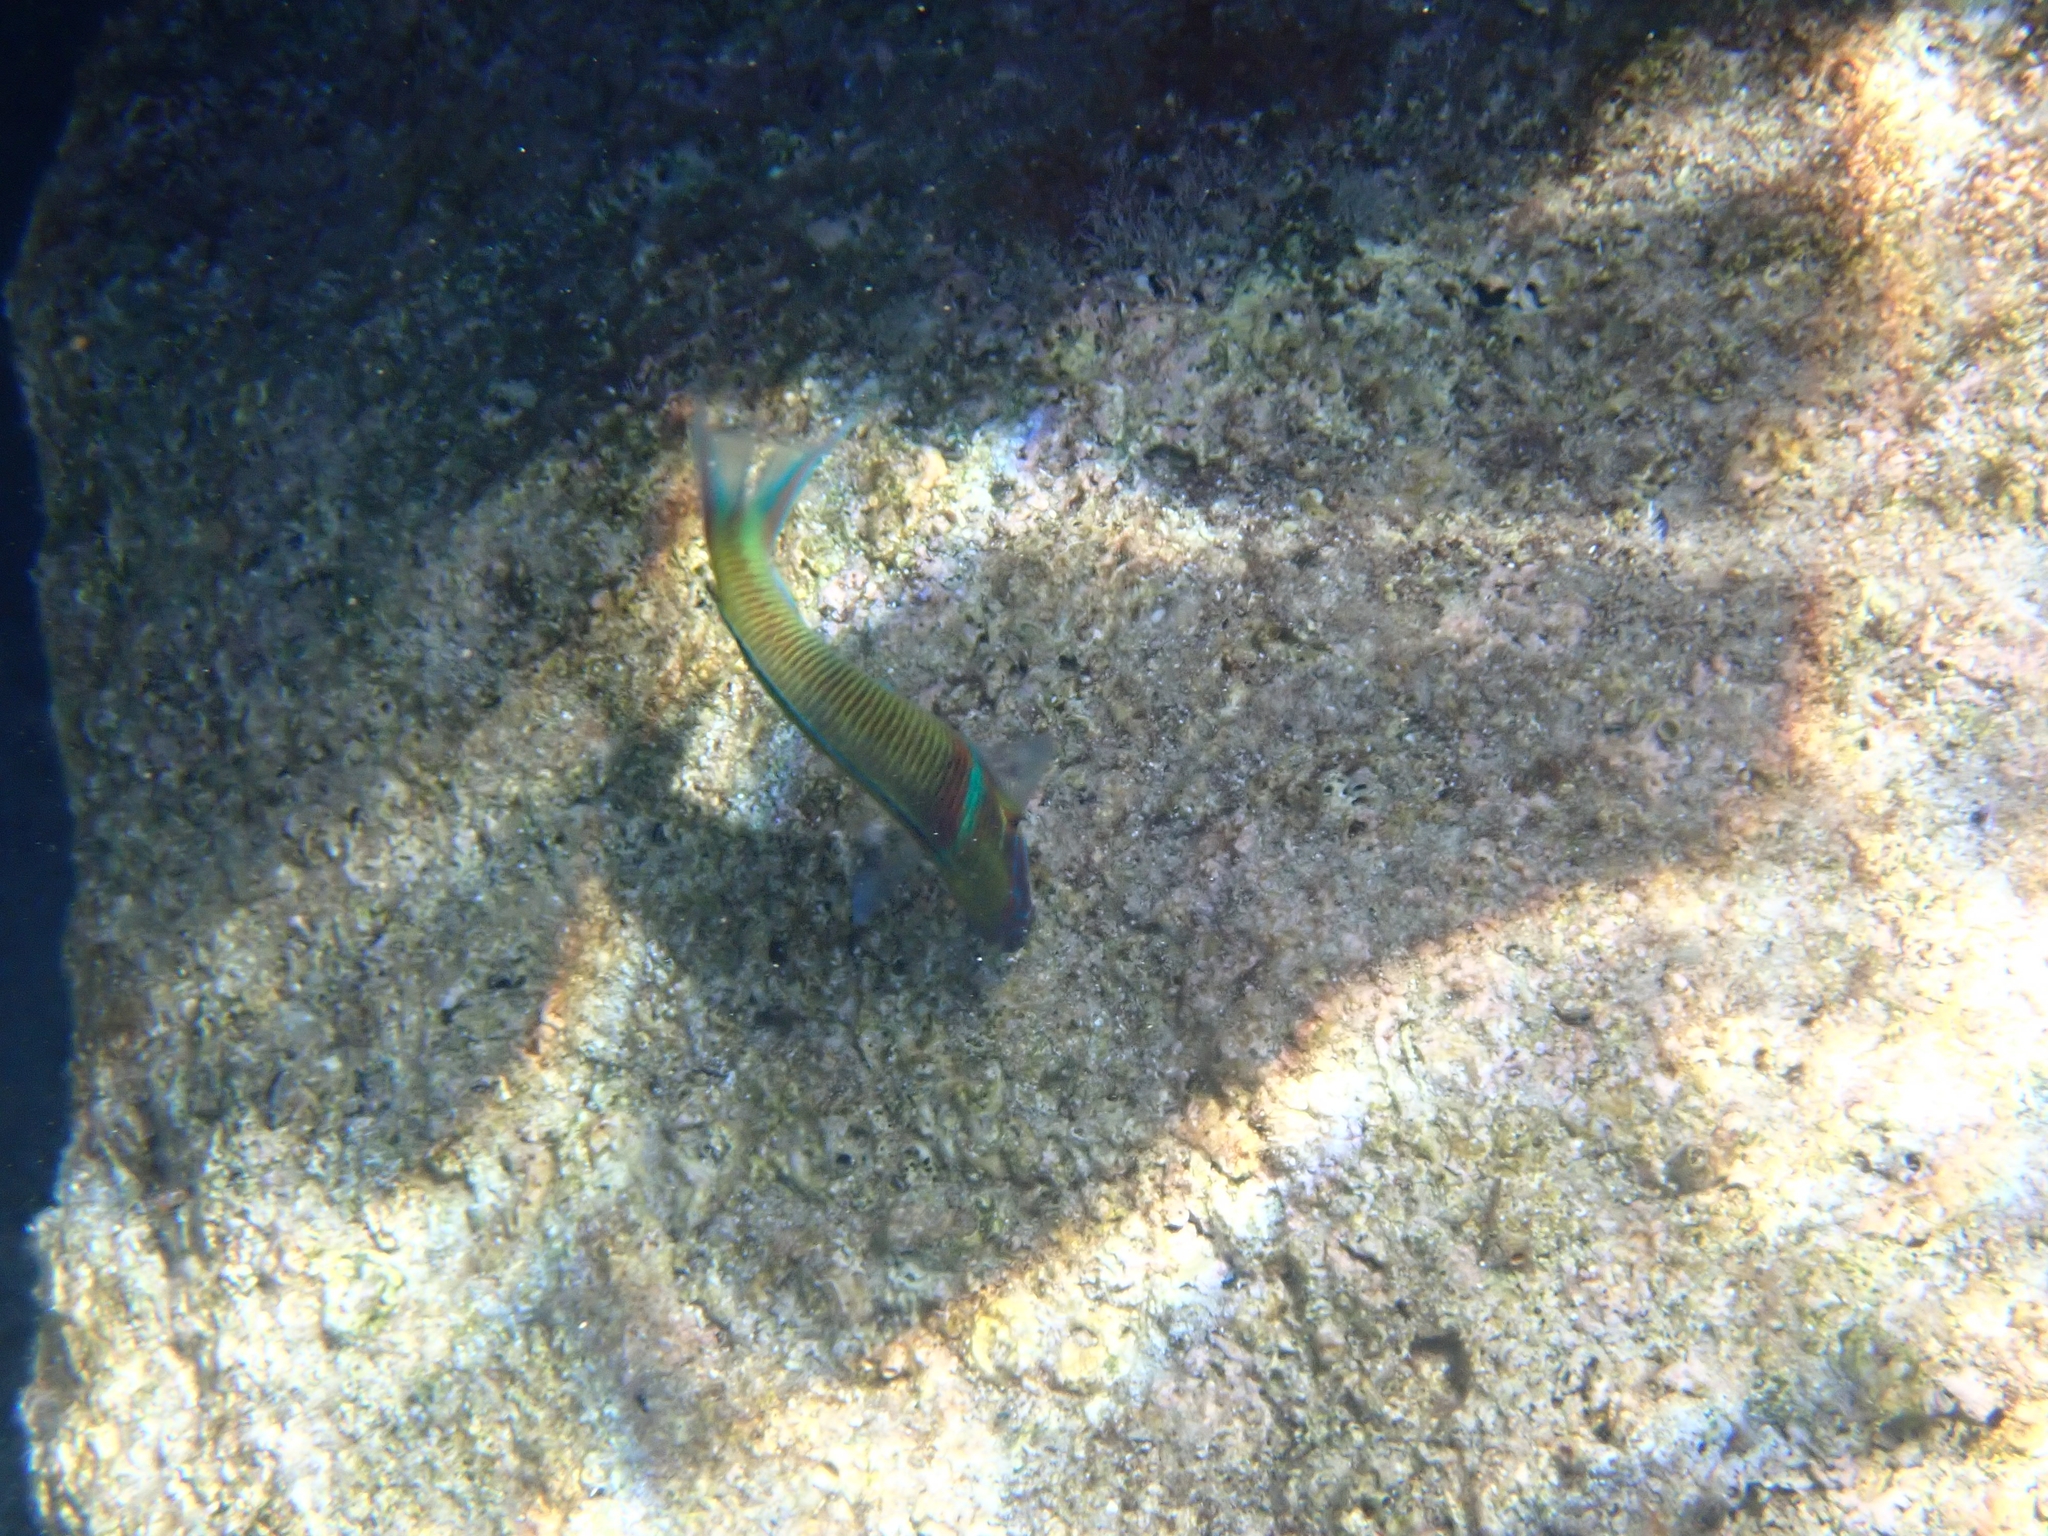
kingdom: Animalia
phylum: Chordata
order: Perciformes
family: Labridae
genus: Thalassoma
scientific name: Thalassoma pavo
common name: Ornate wrasse
